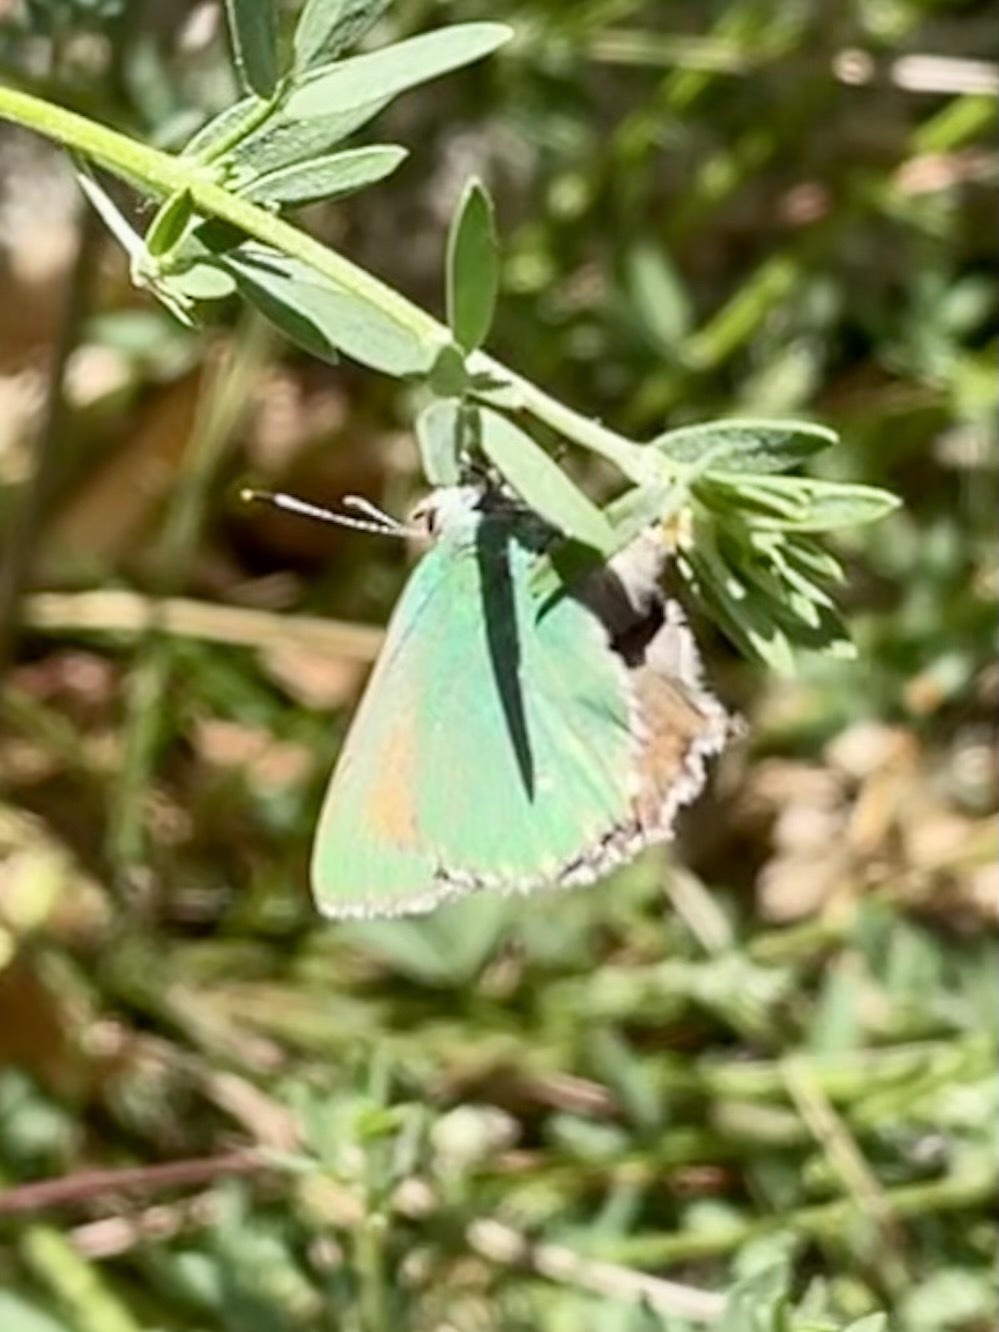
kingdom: Animalia
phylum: Arthropoda
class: Insecta
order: Lepidoptera
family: Lycaenidae
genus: Callophrys
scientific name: Callophrys dumetorum
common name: Bramble hairstreak
